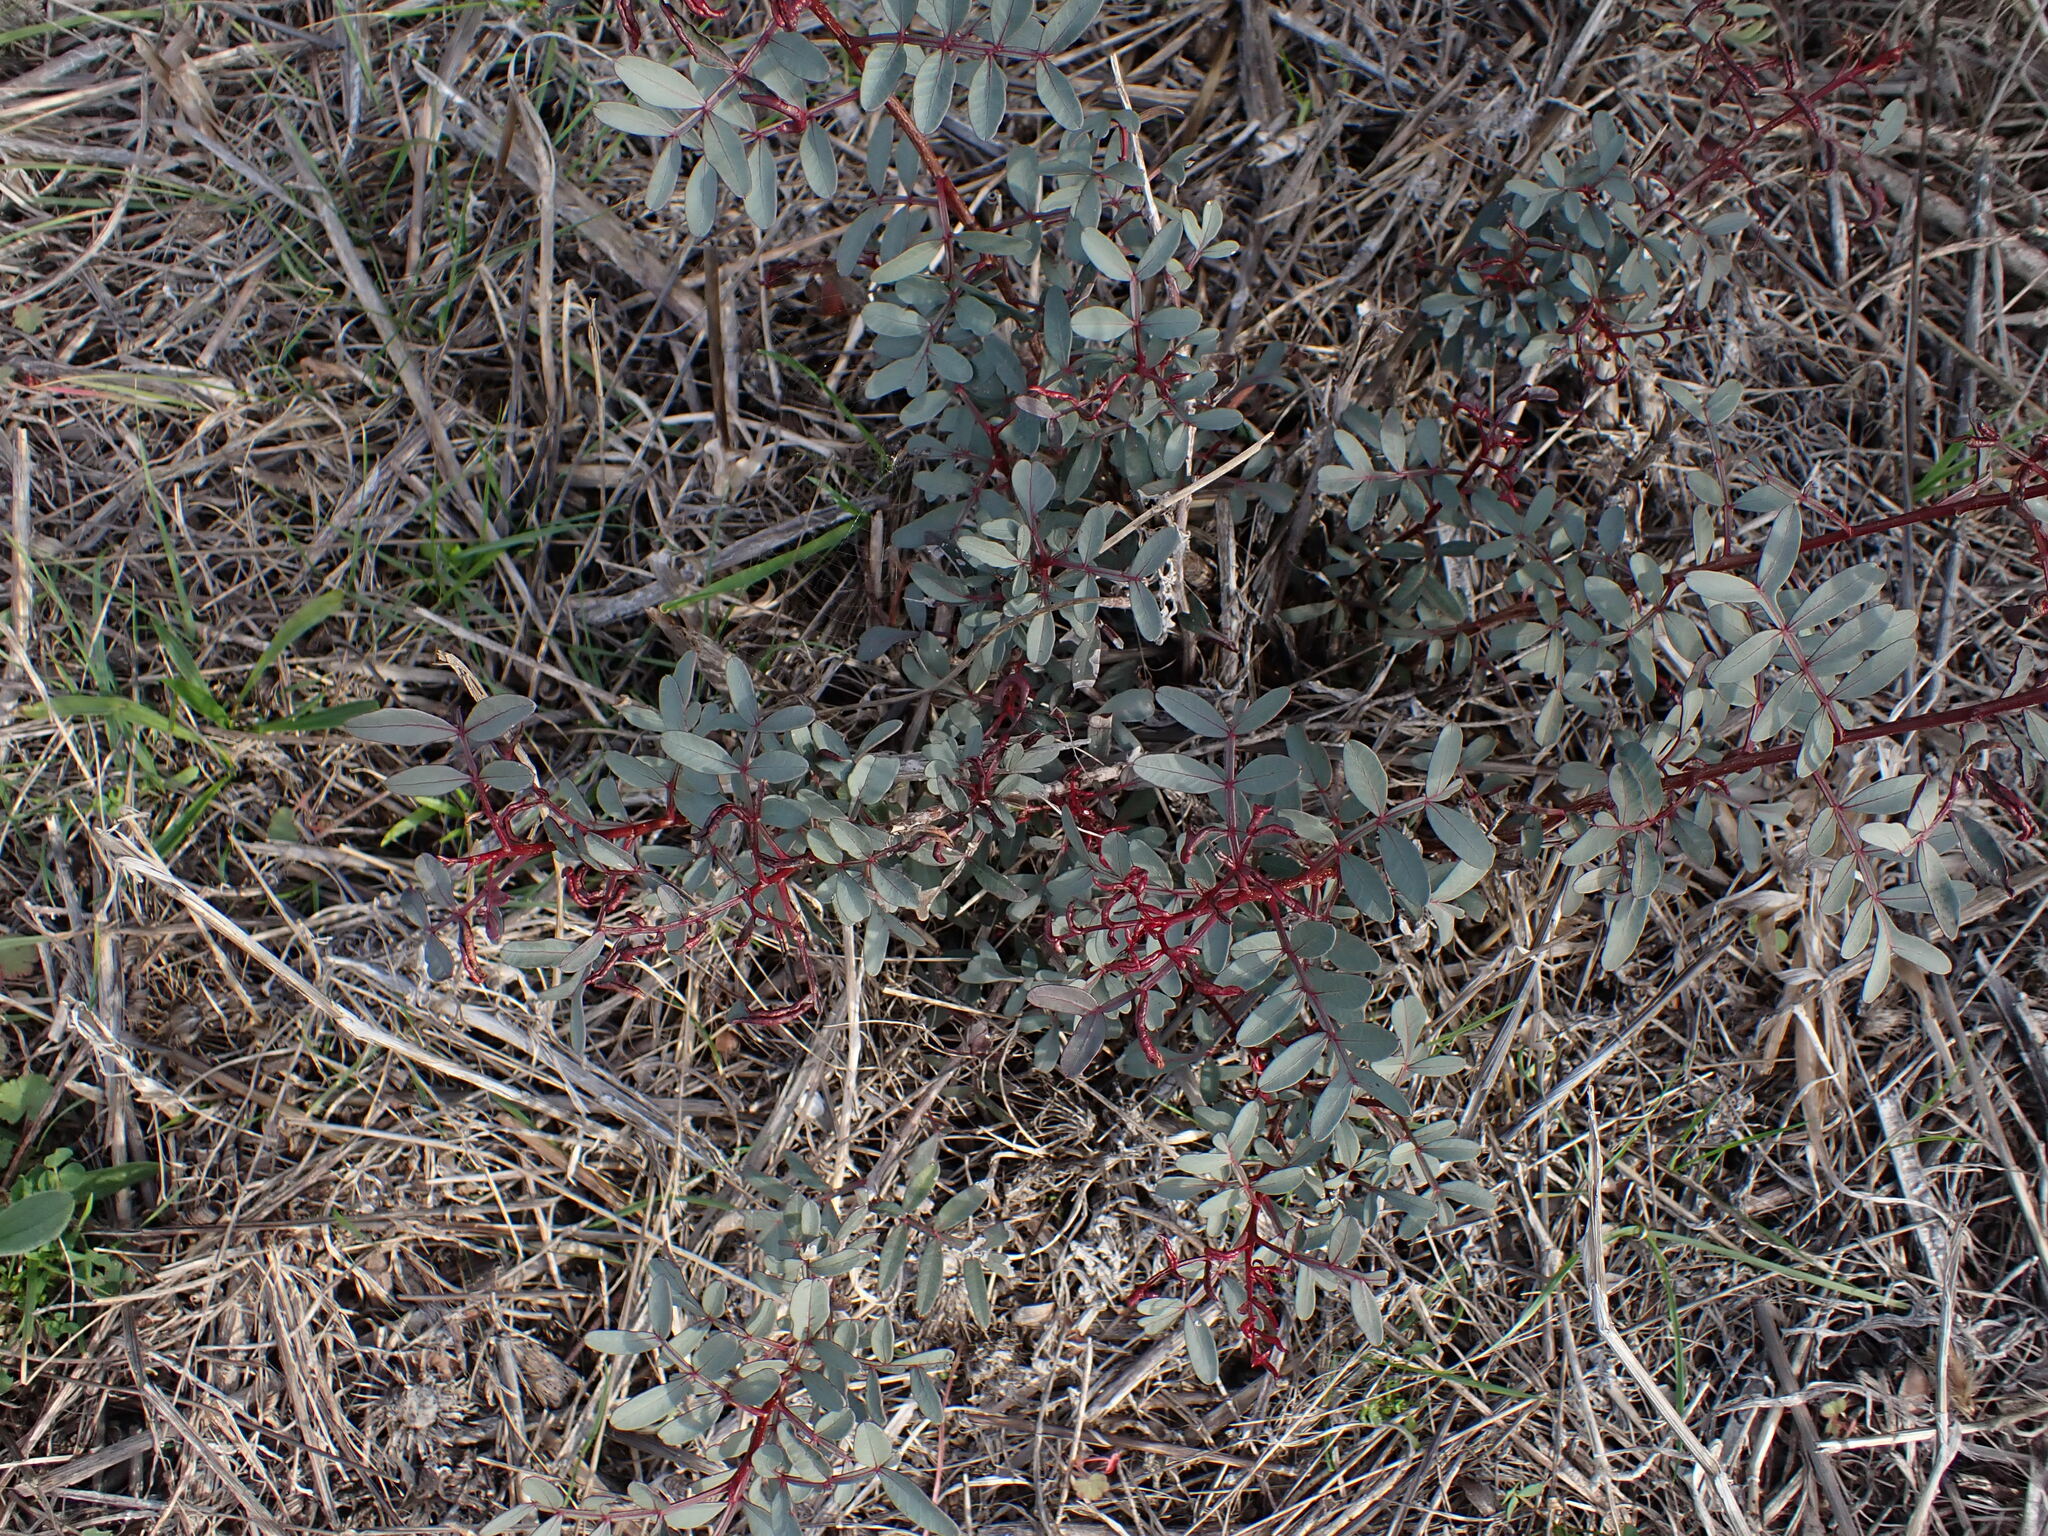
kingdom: Plantae
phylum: Tracheophyta
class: Magnoliopsida
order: Sapindales
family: Anacardiaceae
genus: Pistacia
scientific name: Pistacia lentiscus
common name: Lentisk
